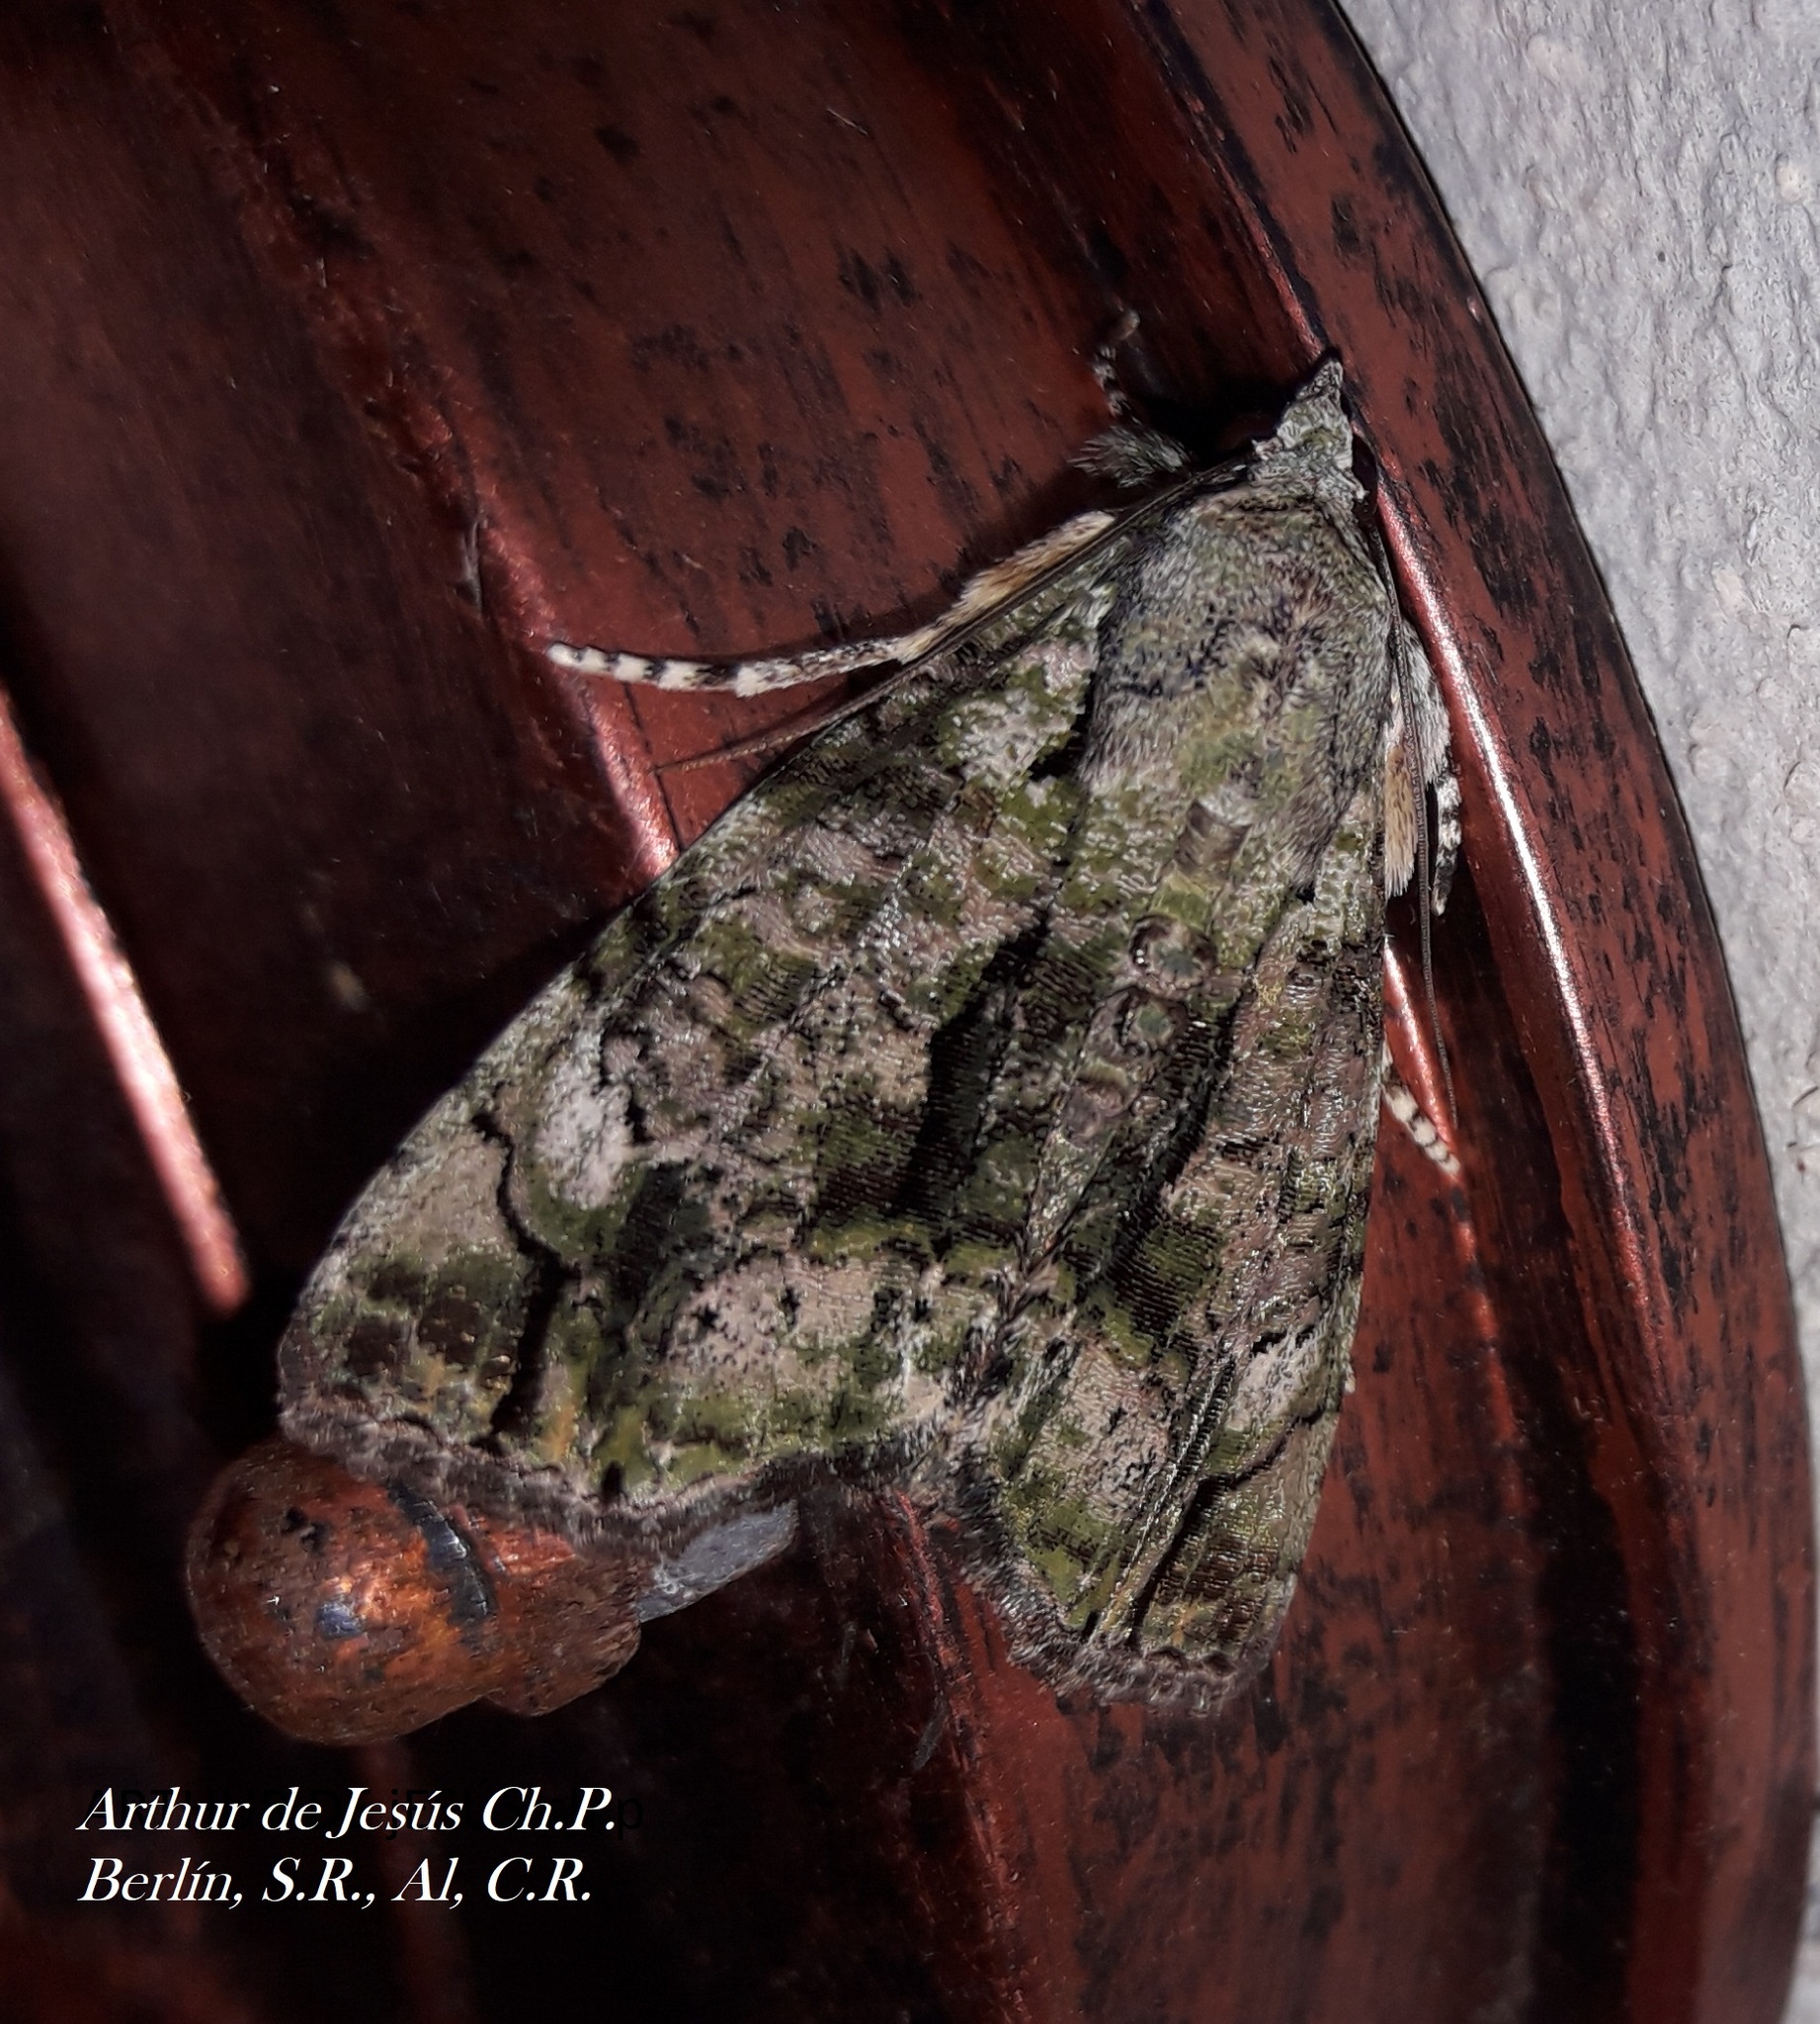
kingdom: Animalia
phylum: Arthropoda
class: Insecta
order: Lepidoptera
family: Noctuidae
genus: Neophaenis
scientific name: Neophaenis boucheri
